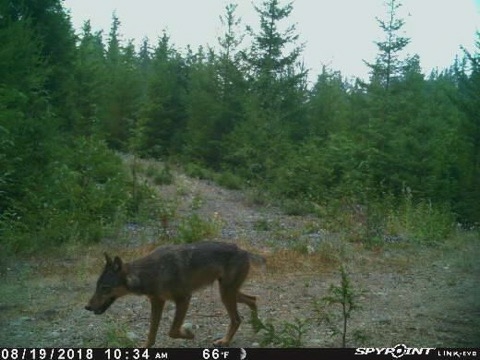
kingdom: Animalia
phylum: Chordata
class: Mammalia
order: Carnivora
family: Canidae
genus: Canis
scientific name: Canis lupus
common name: Gray wolf
